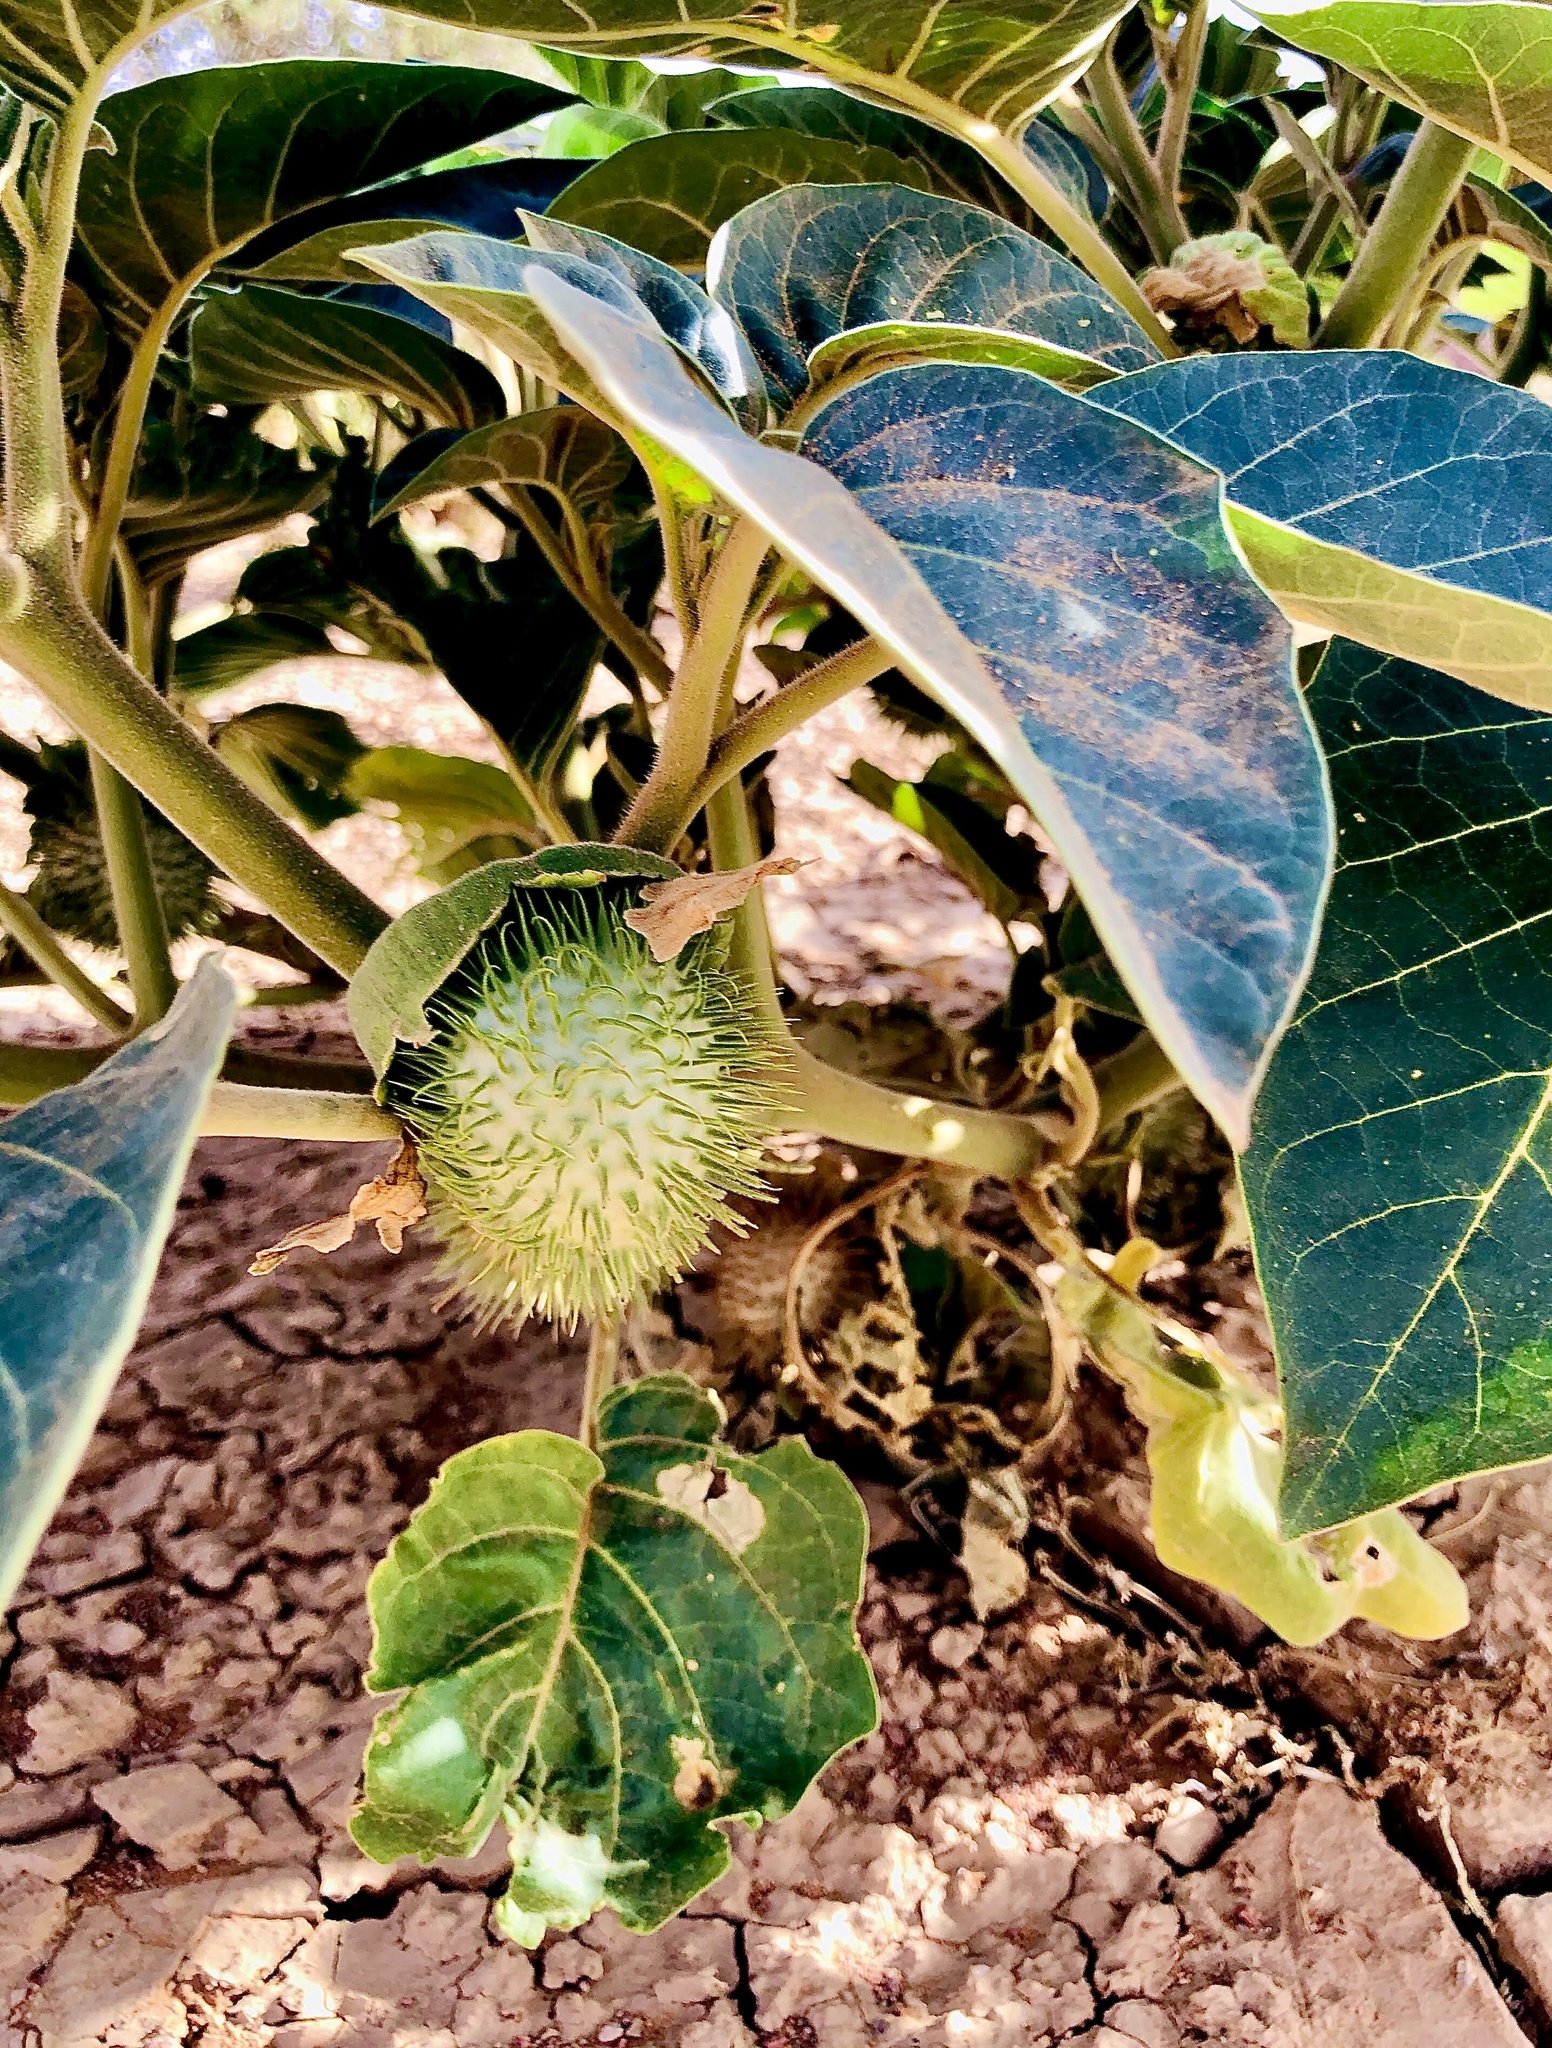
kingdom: Plantae
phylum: Tracheophyta
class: Magnoliopsida
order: Solanales
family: Solanaceae
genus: Datura
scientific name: Datura innoxia
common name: Downy thorn-apple
